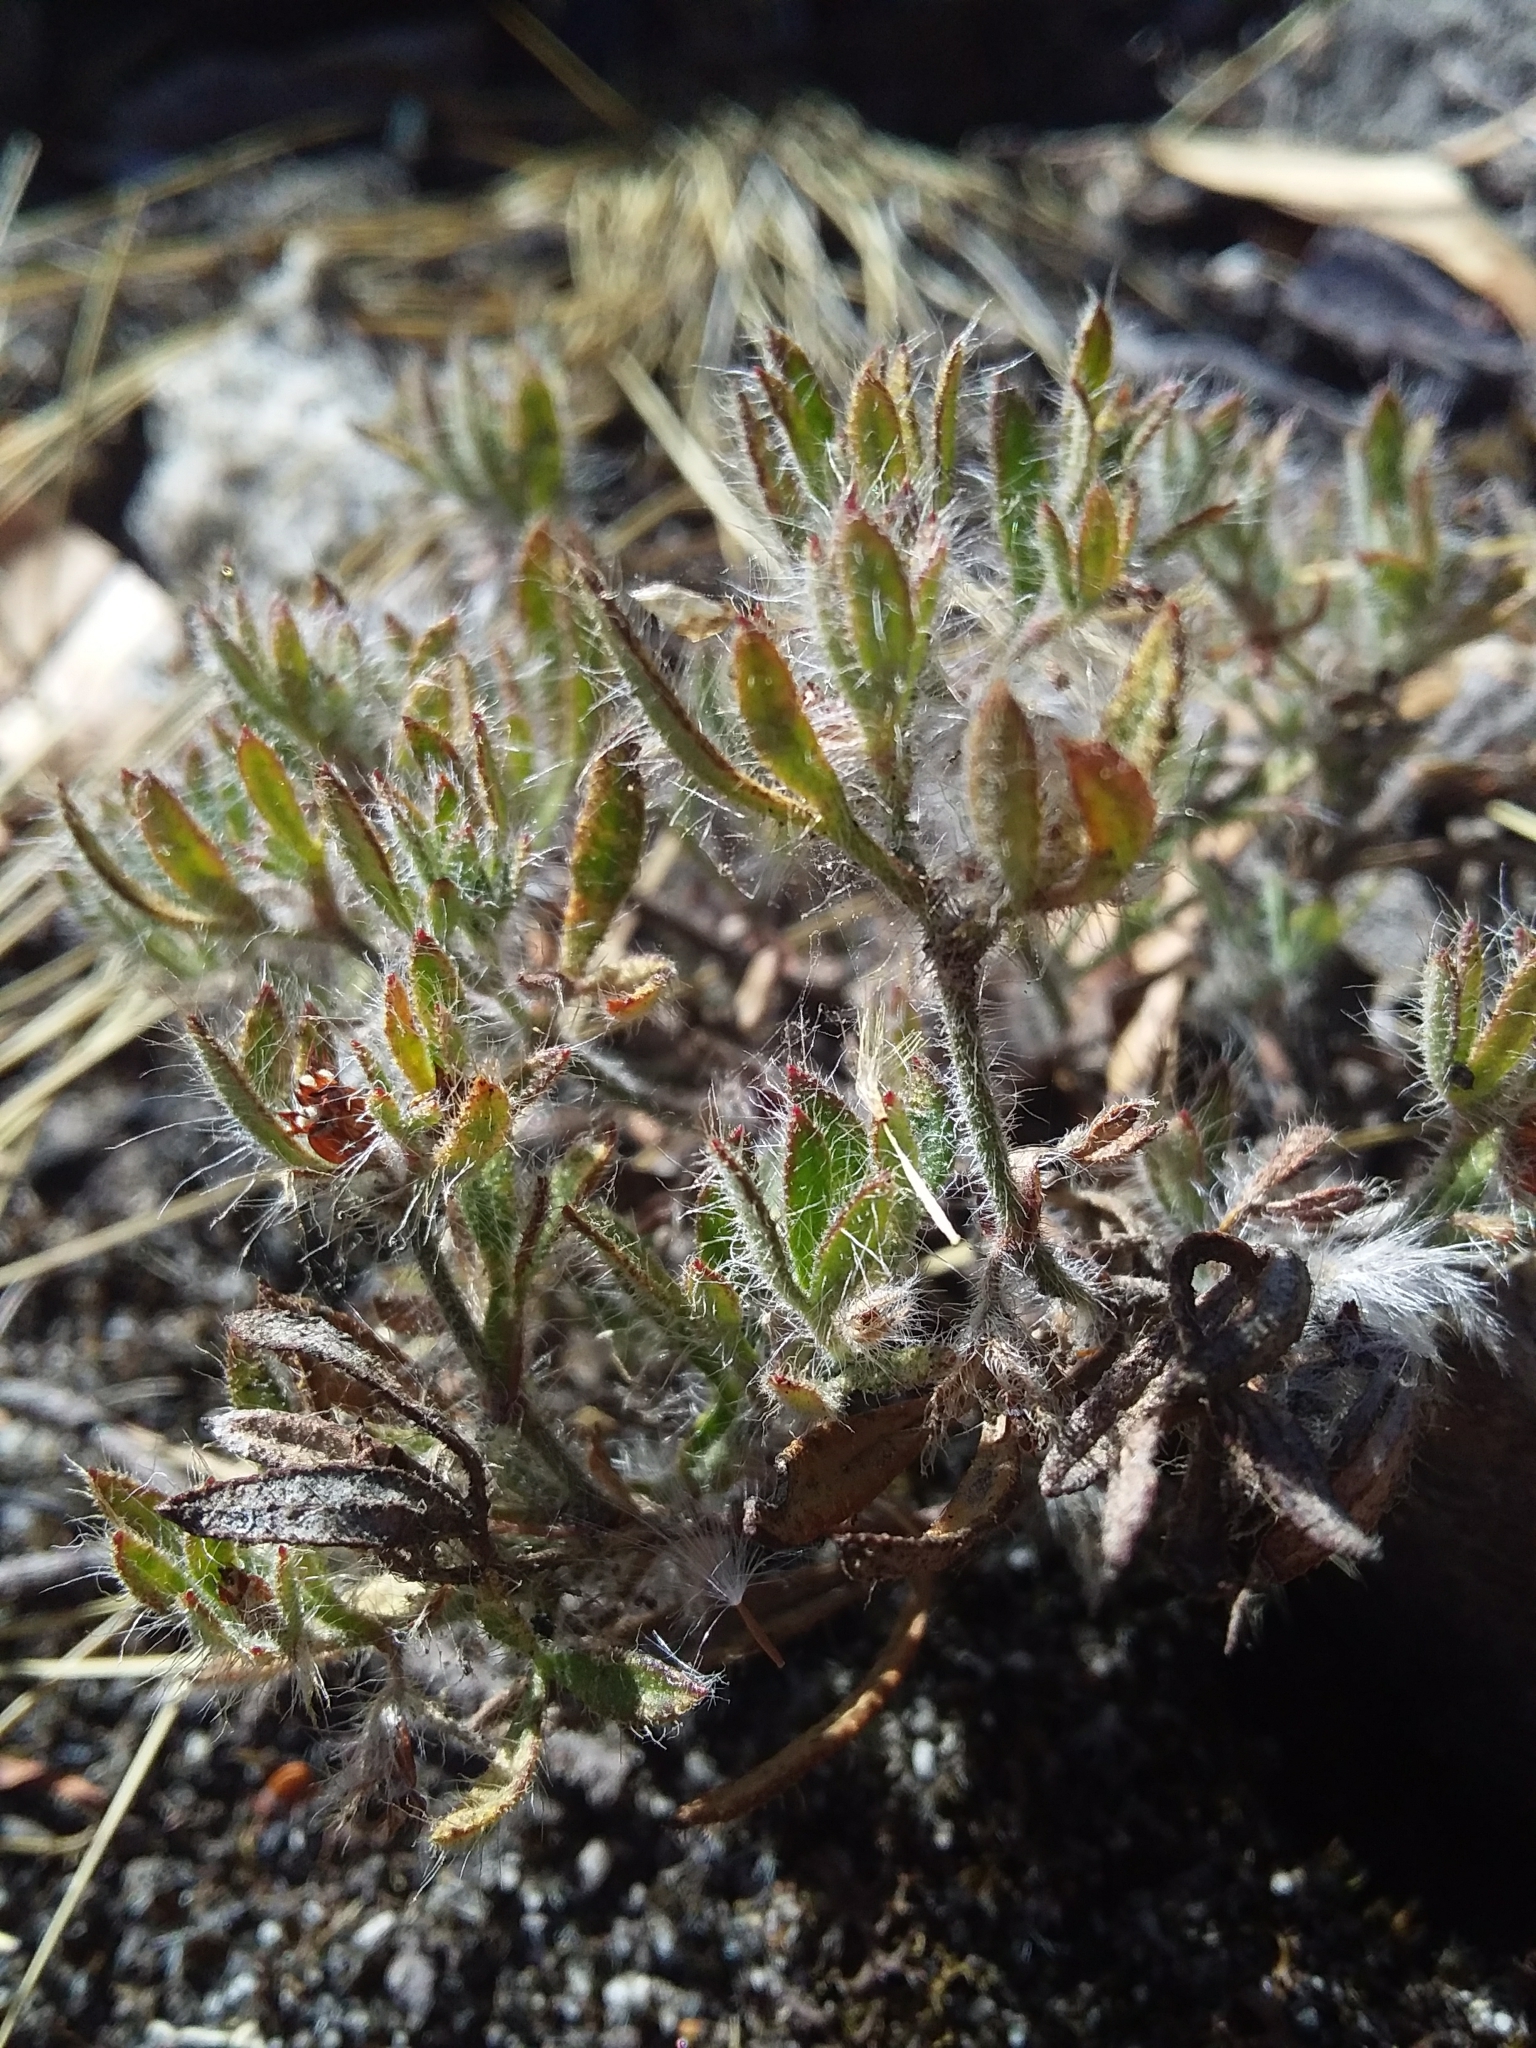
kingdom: Plantae
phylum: Tracheophyta
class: Magnoliopsida
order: Apiales
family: Apiaceae
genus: Xanthosia
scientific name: Xanthosia huegelii
